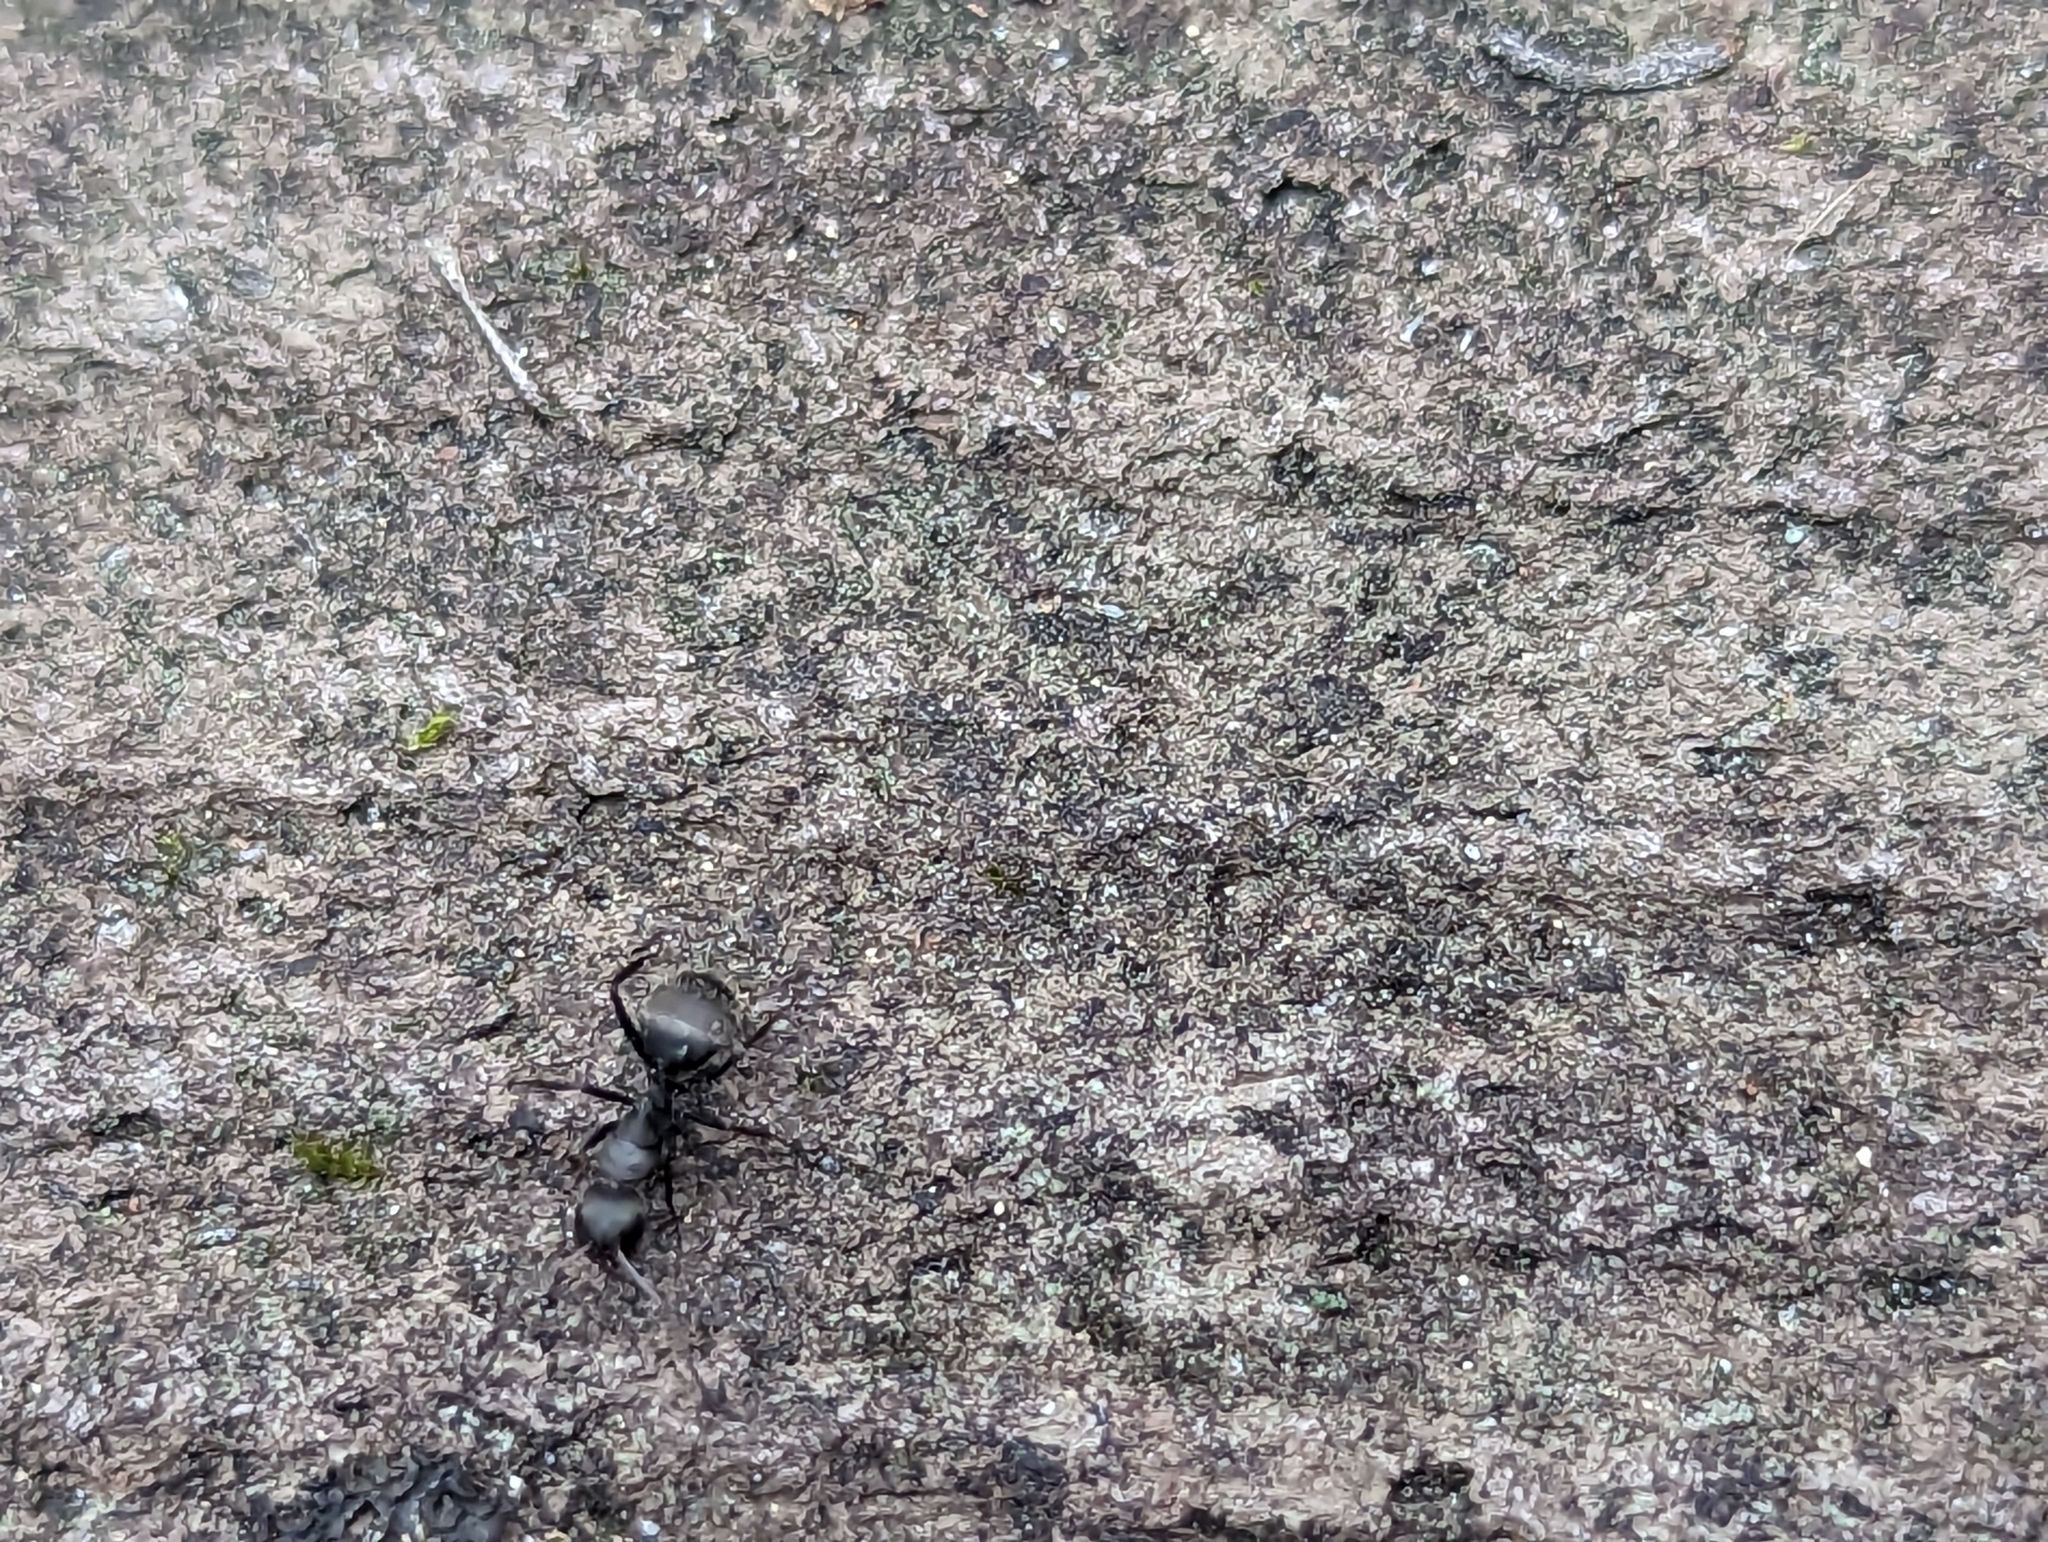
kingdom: Animalia
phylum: Arthropoda
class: Insecta
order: Hymenoptera
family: Formicidae
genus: Camponotus
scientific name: Camponotus novogranadensis
